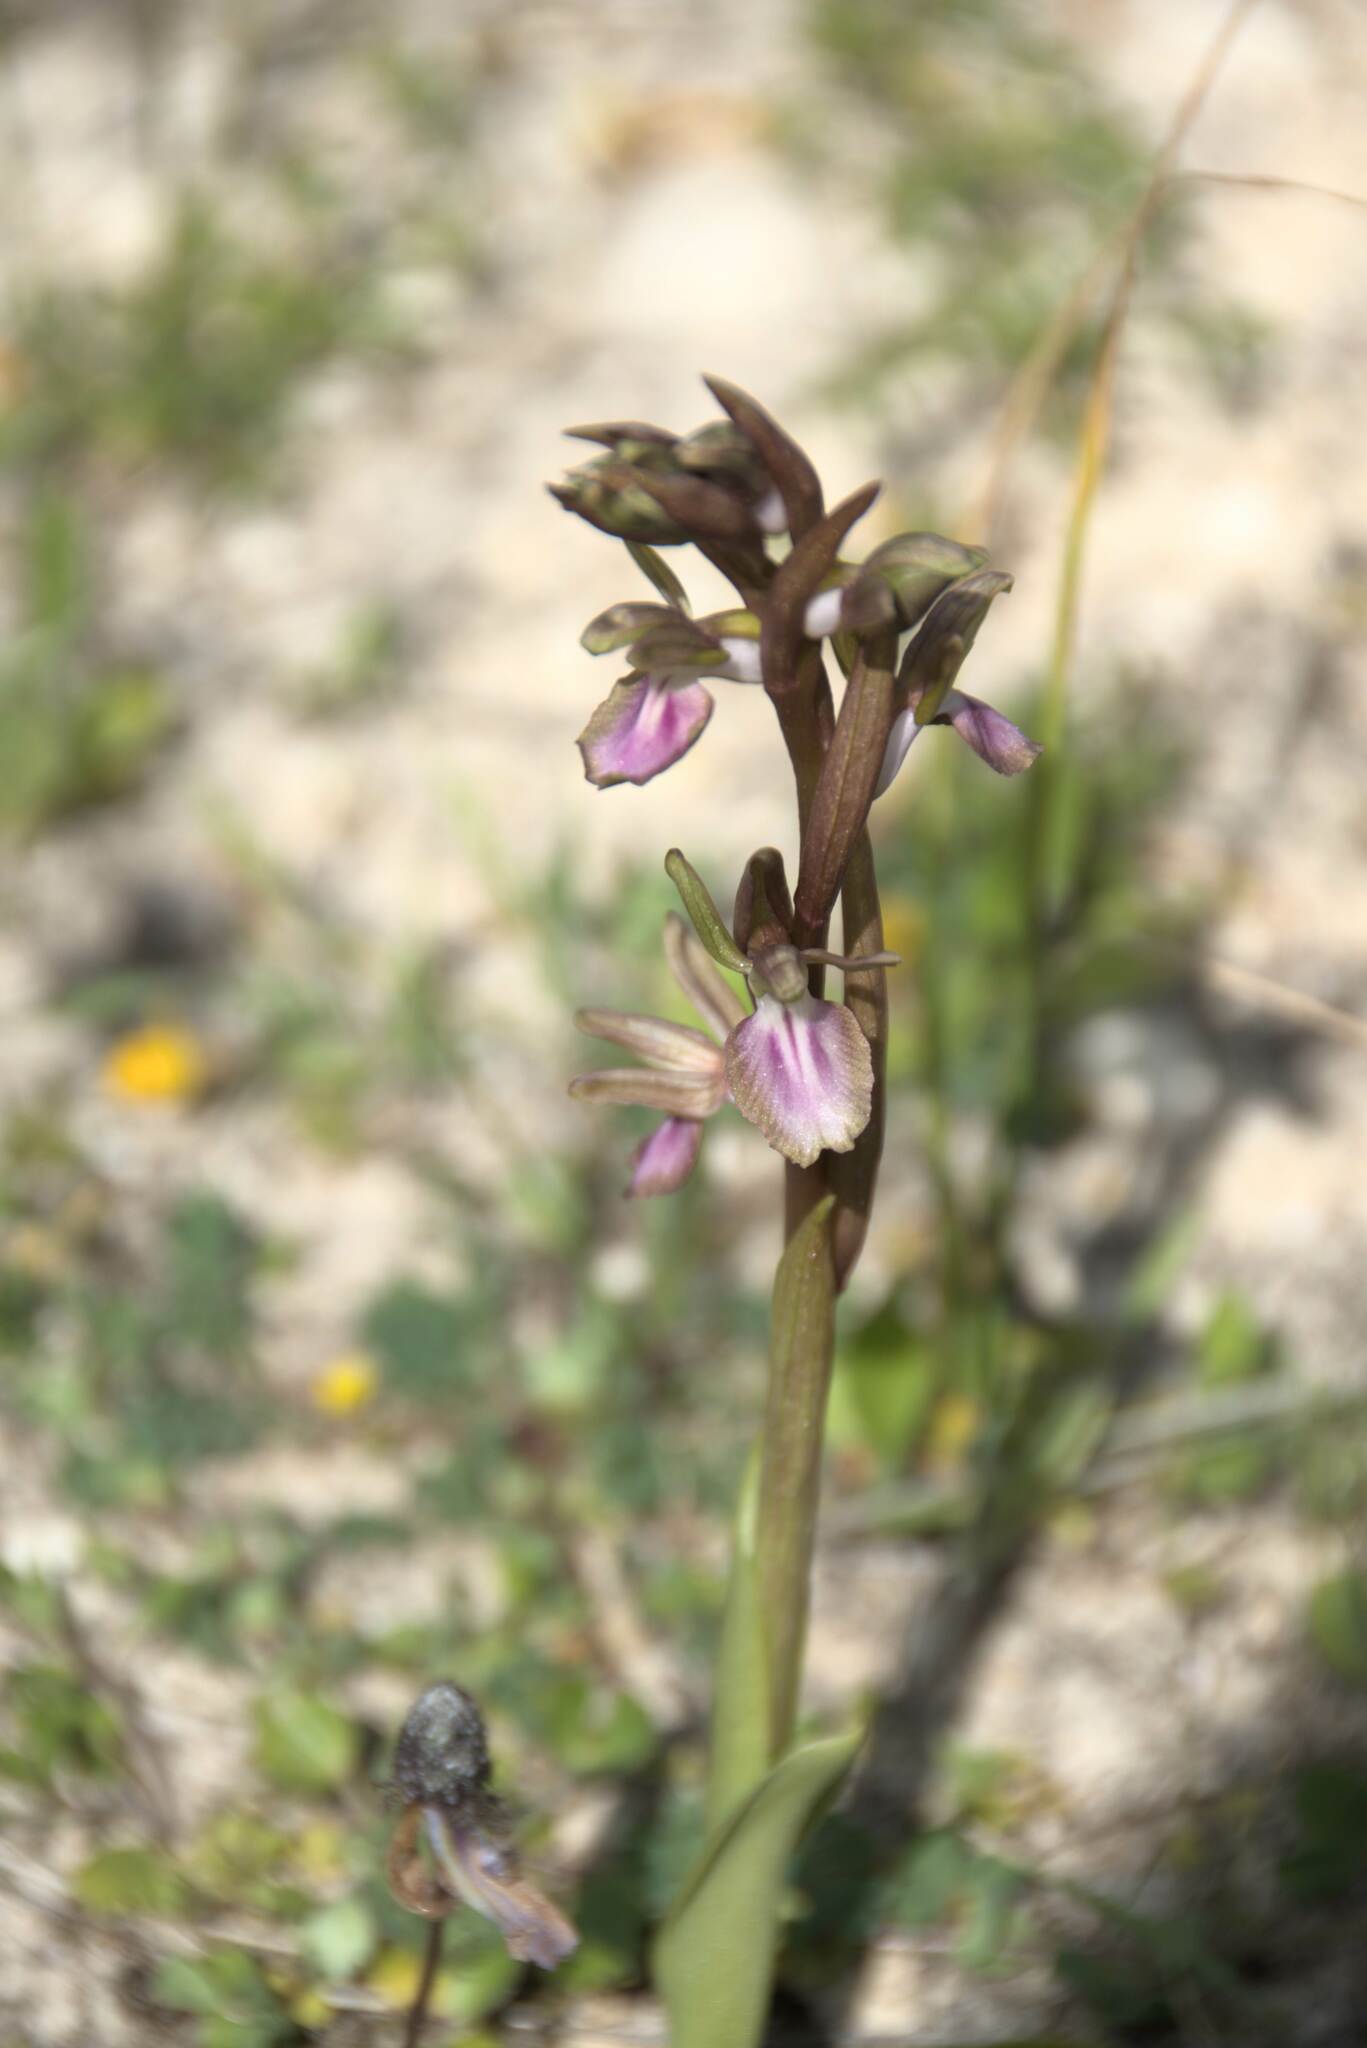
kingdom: Plantae
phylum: Tracheophyta
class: Liliopsida
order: Asparagales
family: Orchidaceae
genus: Anacamptis
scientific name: Anacamptis collina
